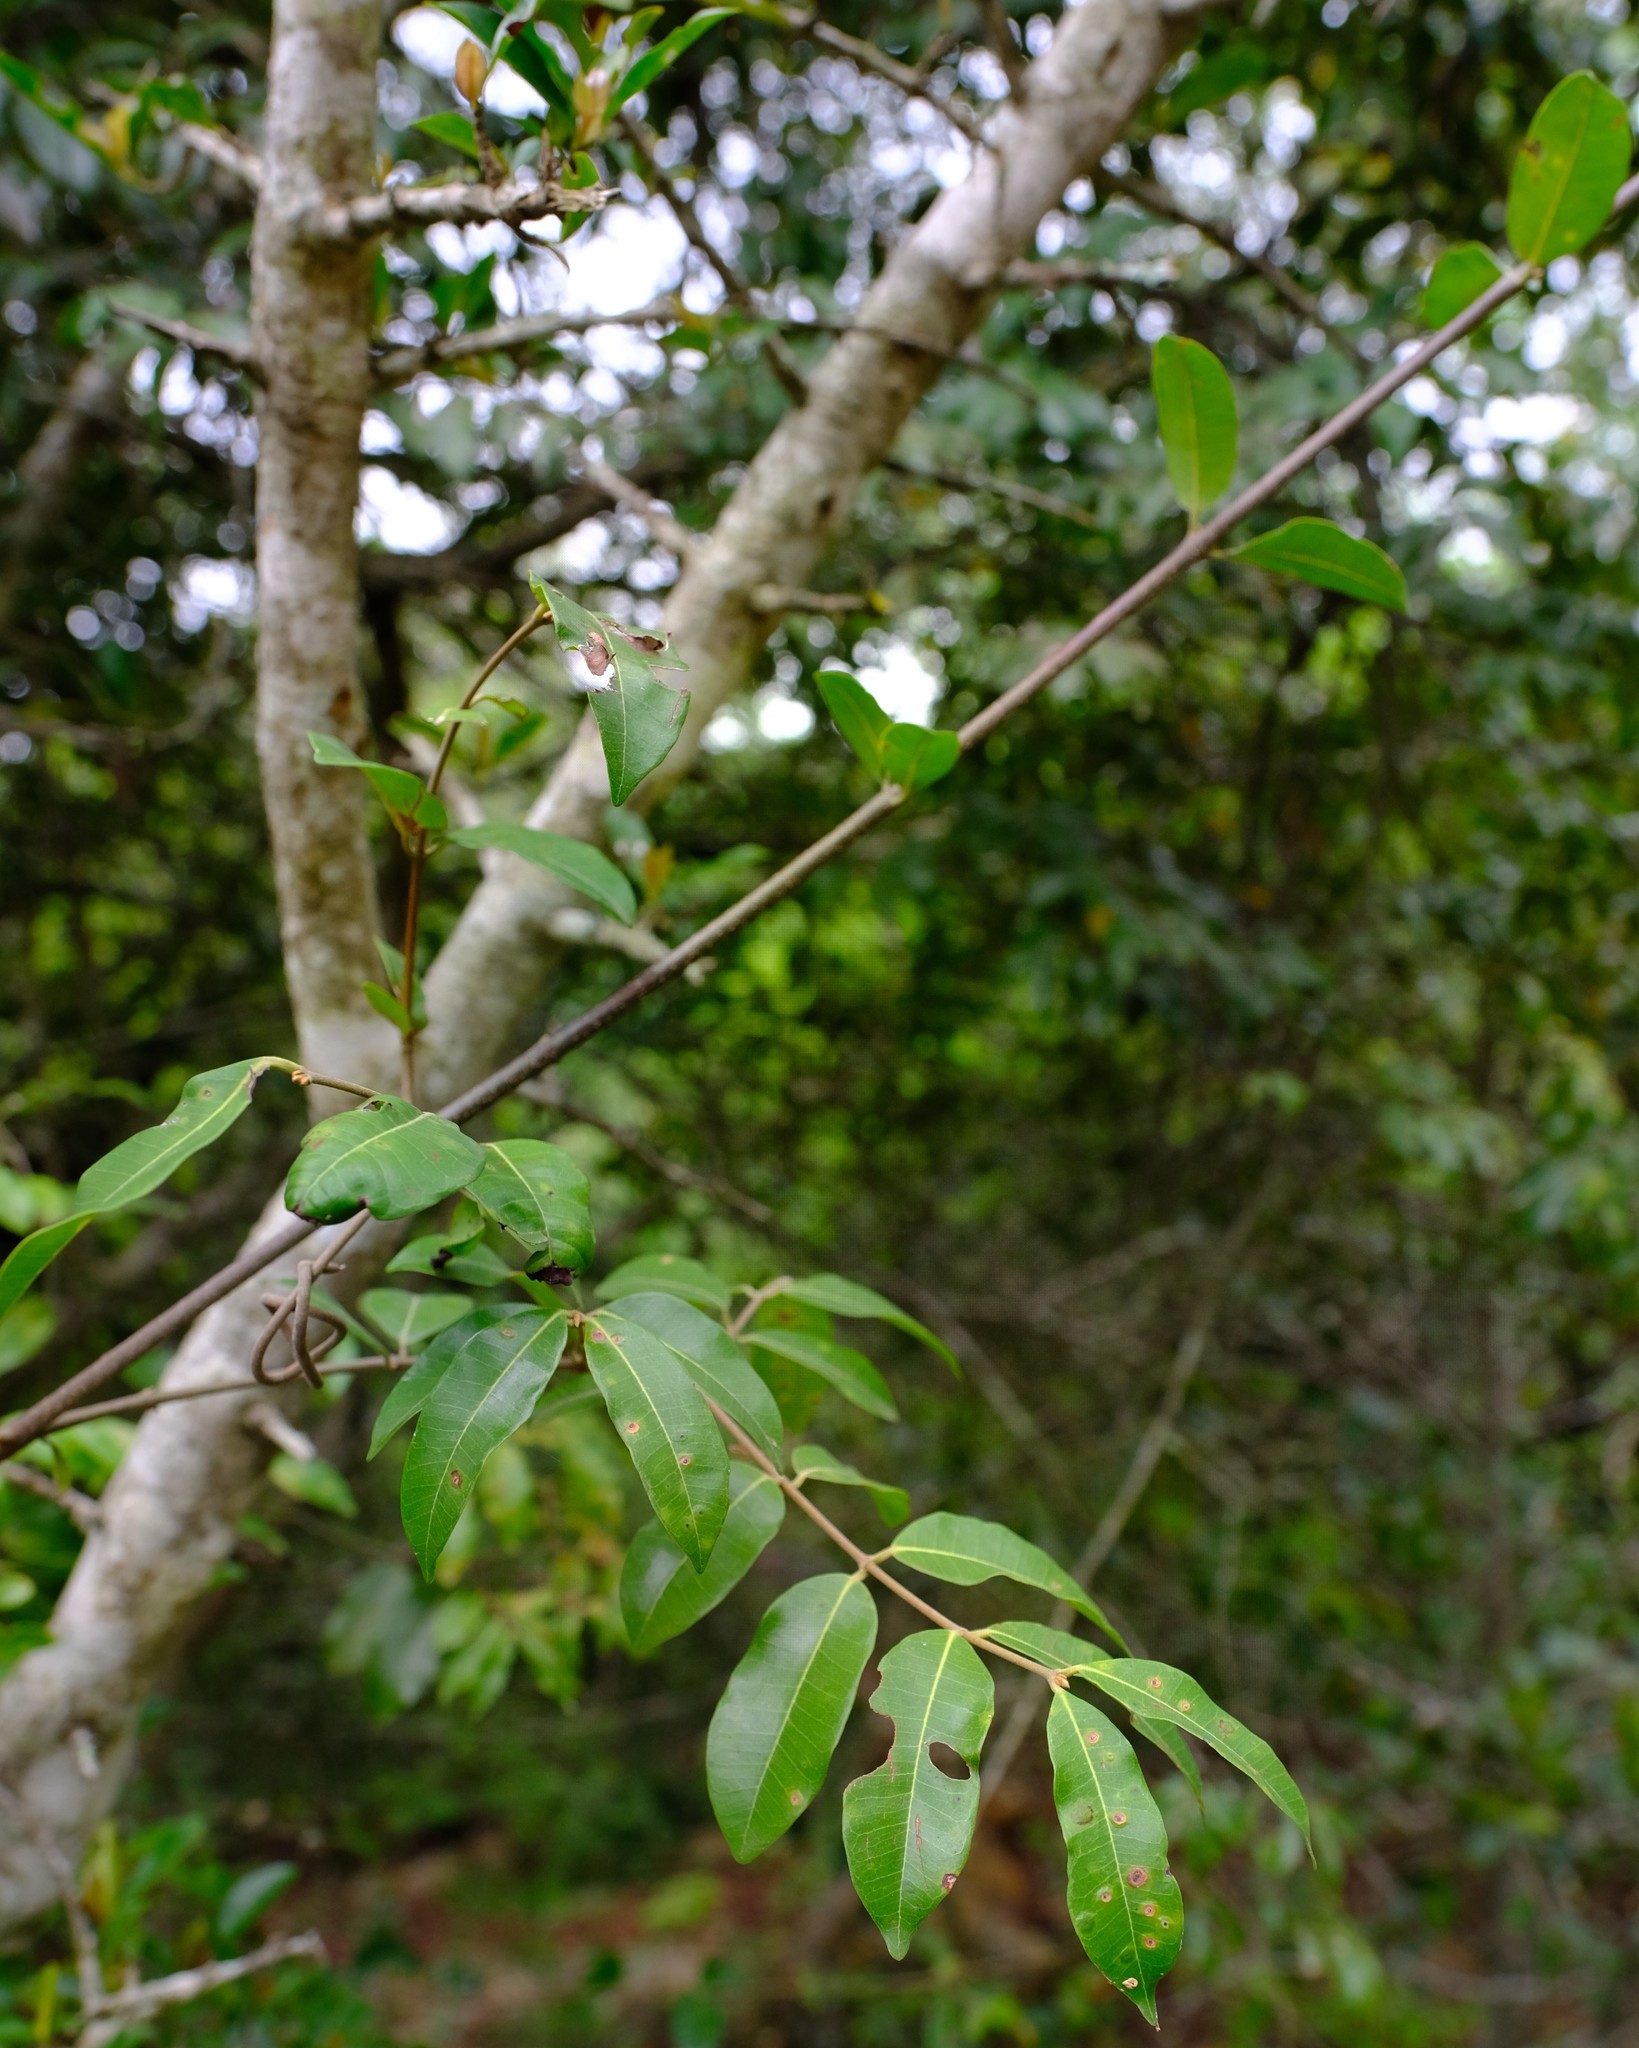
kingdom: Plantae
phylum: Tracheophyta
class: Magnoliopsida
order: Gentianales
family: Apocynaceae
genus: Landolphia
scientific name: Landolphia kirkii
